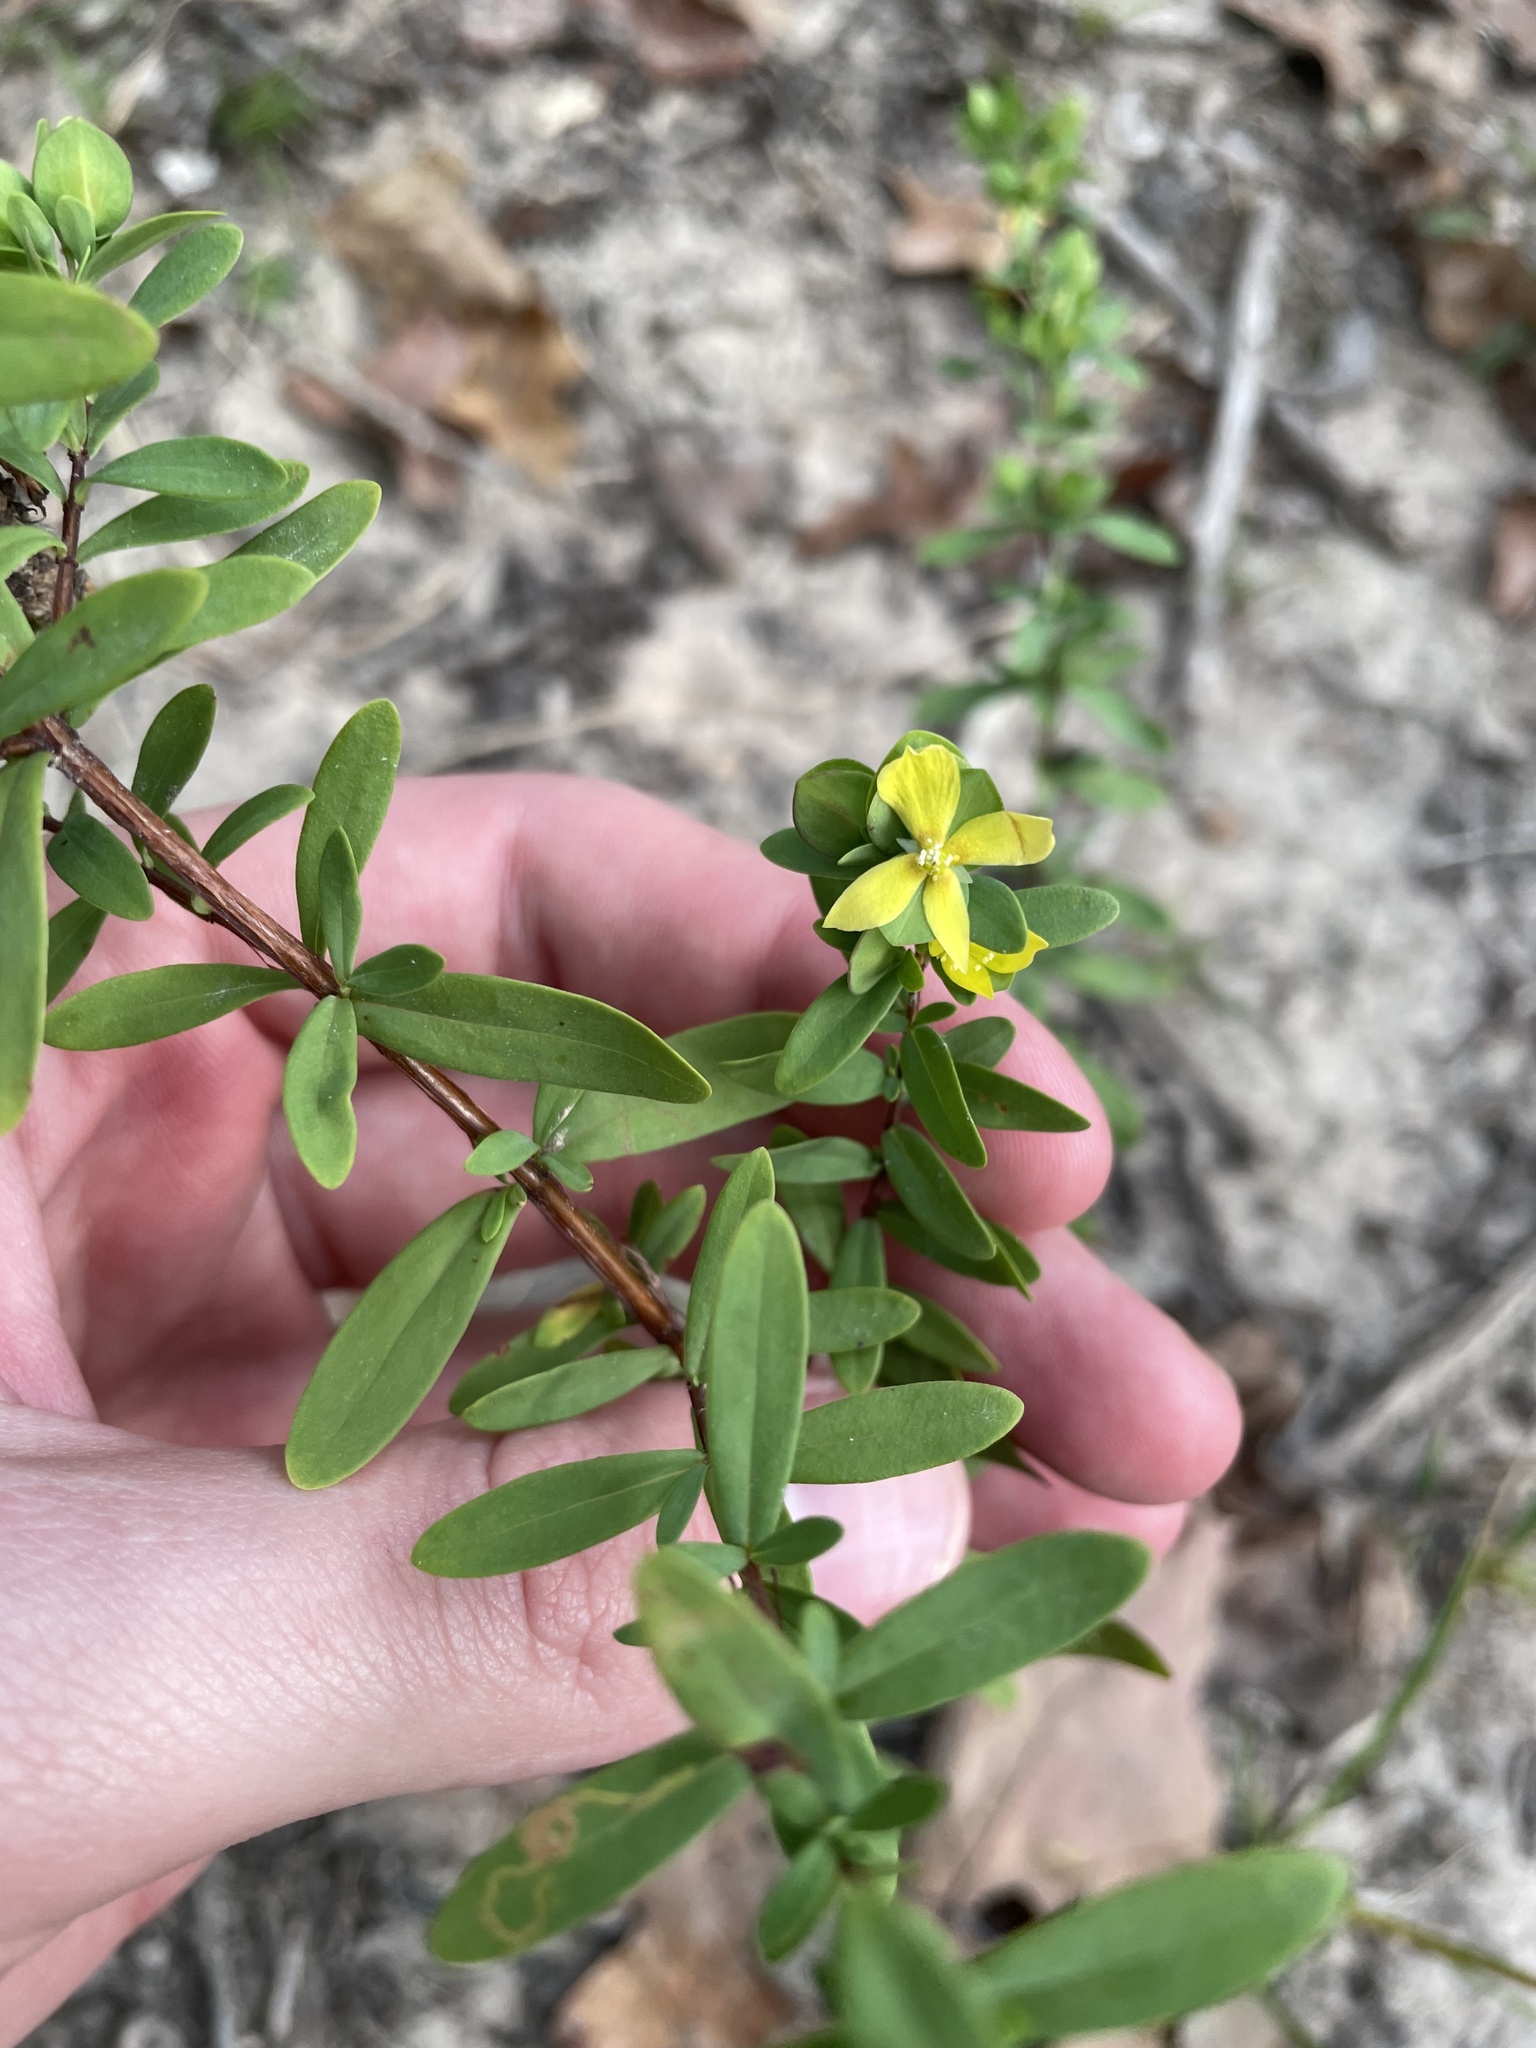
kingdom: Plantae
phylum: Tracheophyta
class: Magnoliopsida
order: Malpighiales
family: Hypericaceae
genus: Hypericum
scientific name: Hypericum hypericoides
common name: St. andrew's cross
